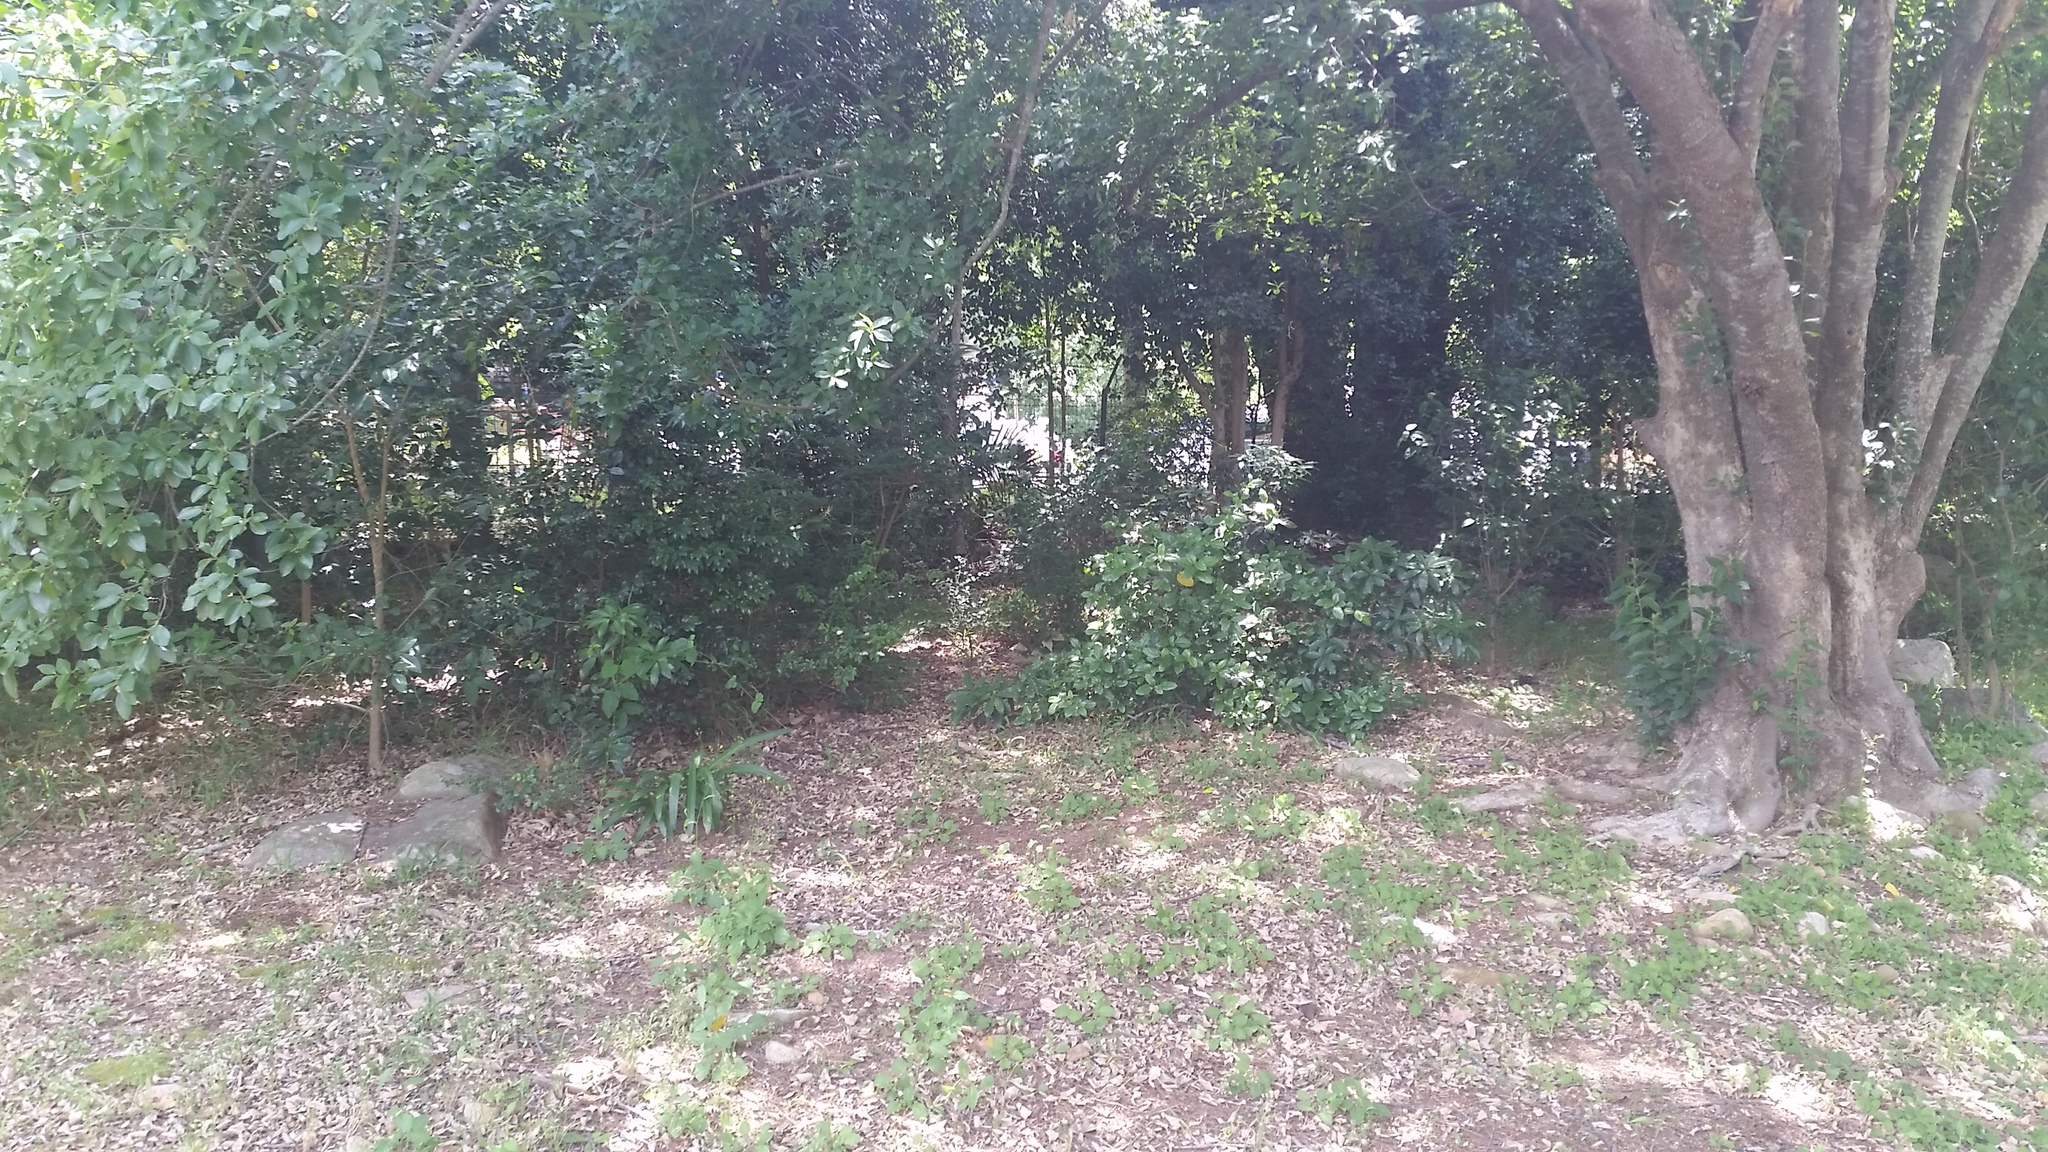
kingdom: Plantae
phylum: Tracheophyta
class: Magnoliopsida
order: Apiales
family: Pittosporaceae
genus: Pittosporum
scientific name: Pittosporum undulatum
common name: Australian cheesewood
